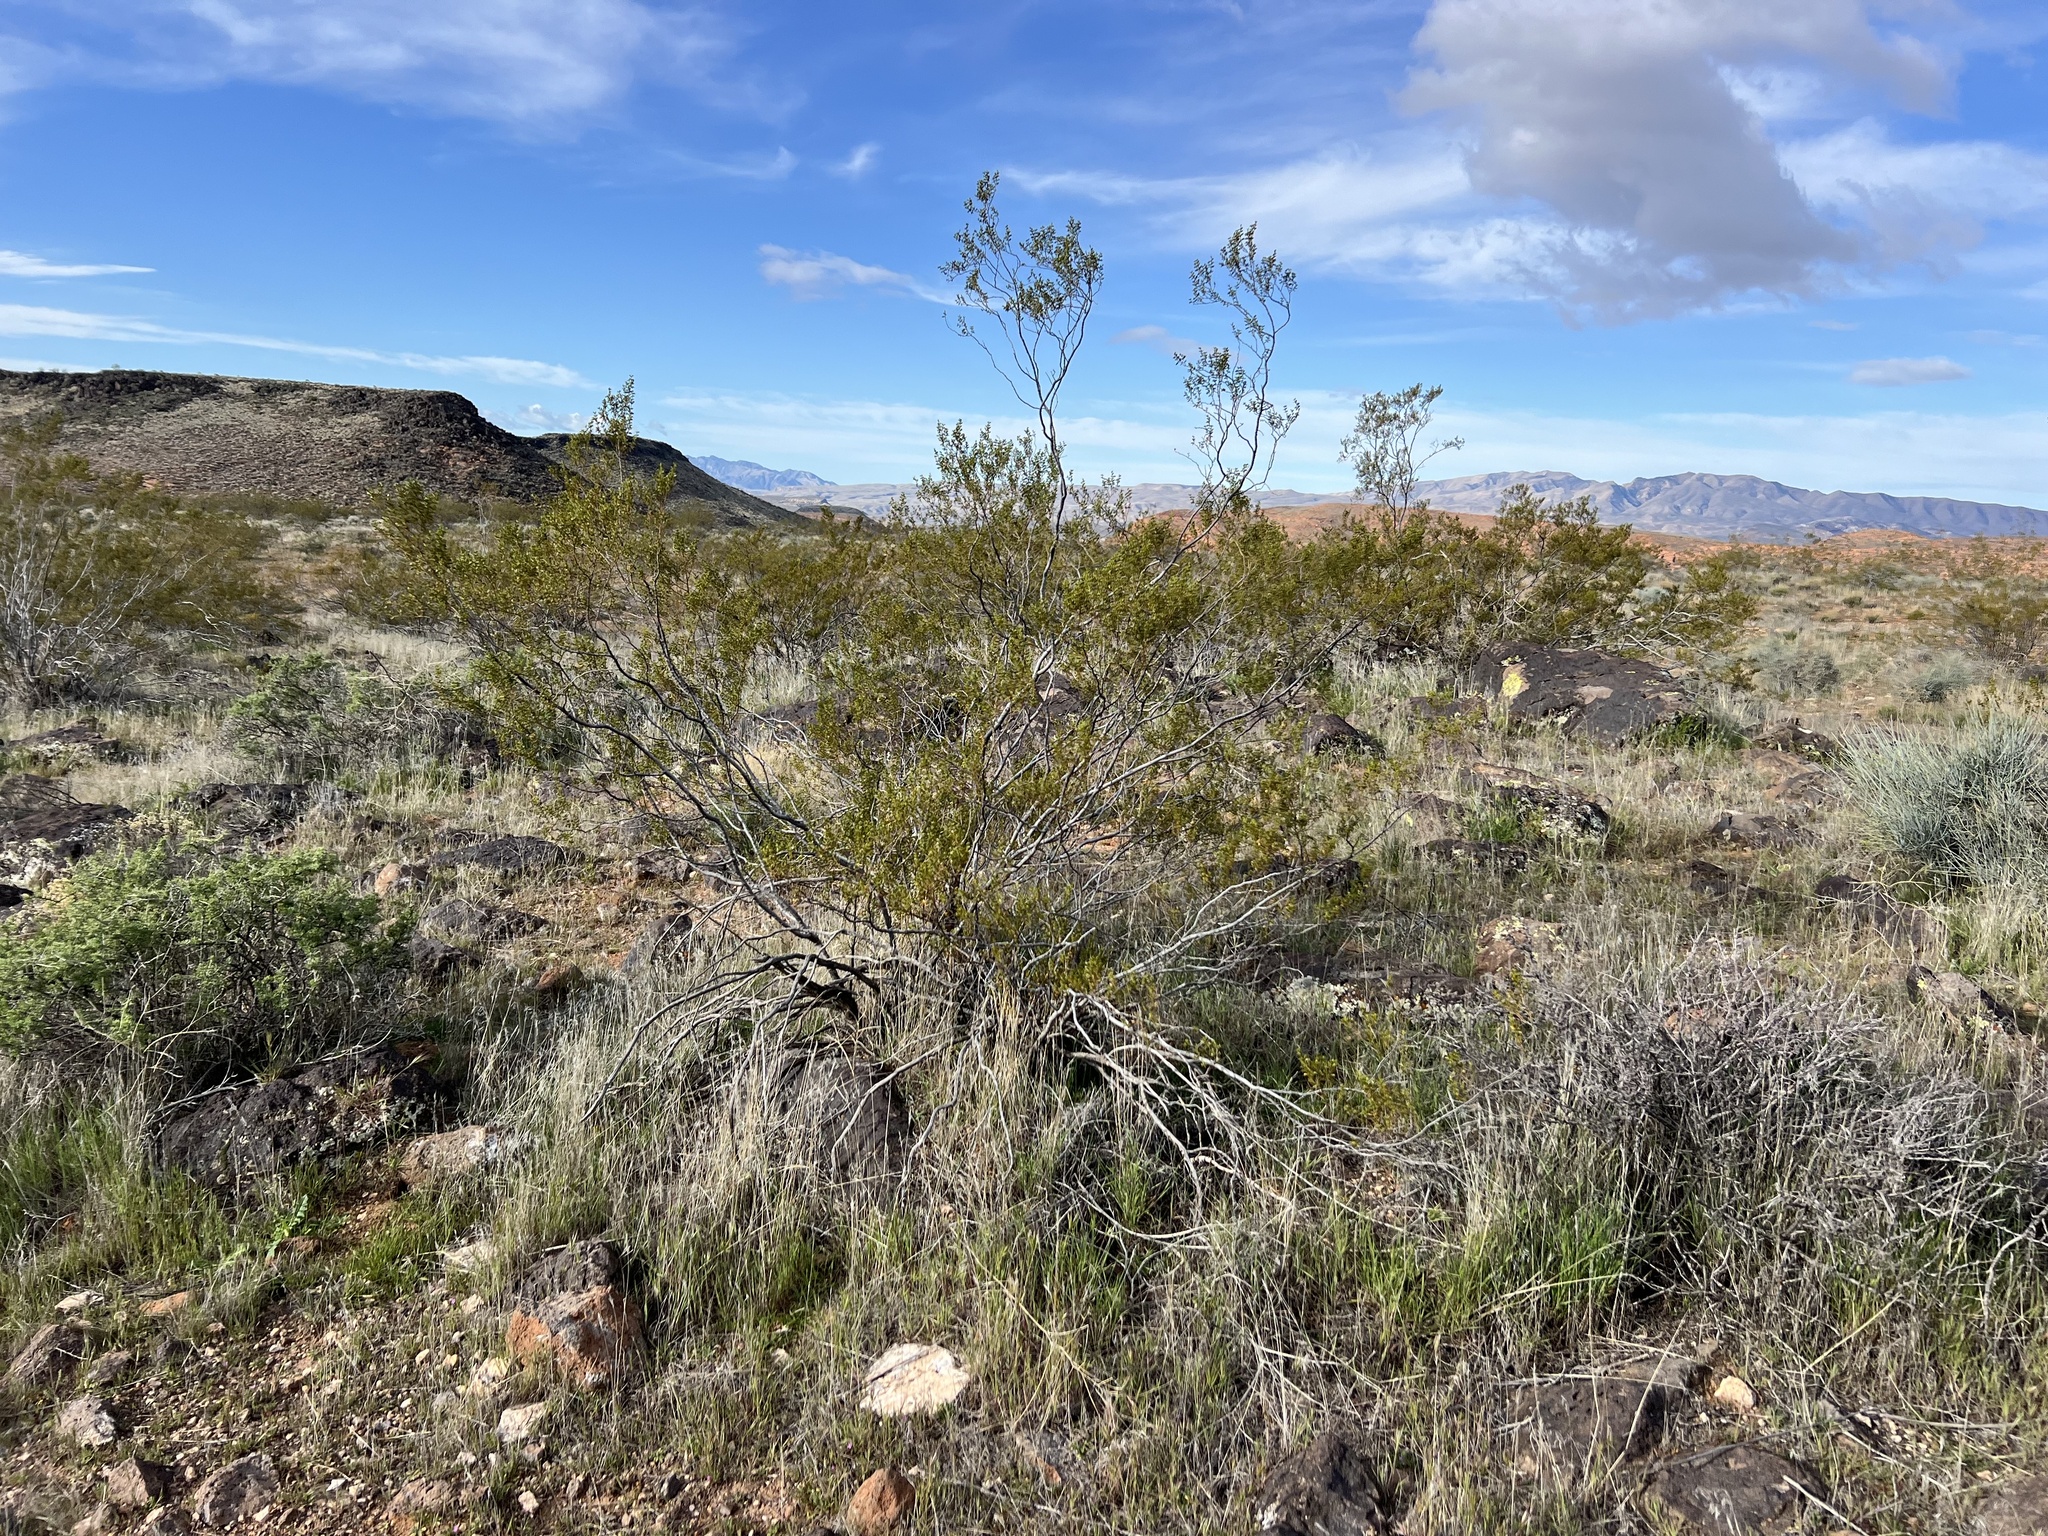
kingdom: Plantae
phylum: Tracheophyta
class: Magnoliopsida
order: Zygophyllales
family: Zygophyllaceae
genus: Larrea
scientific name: Larrea tridentata
